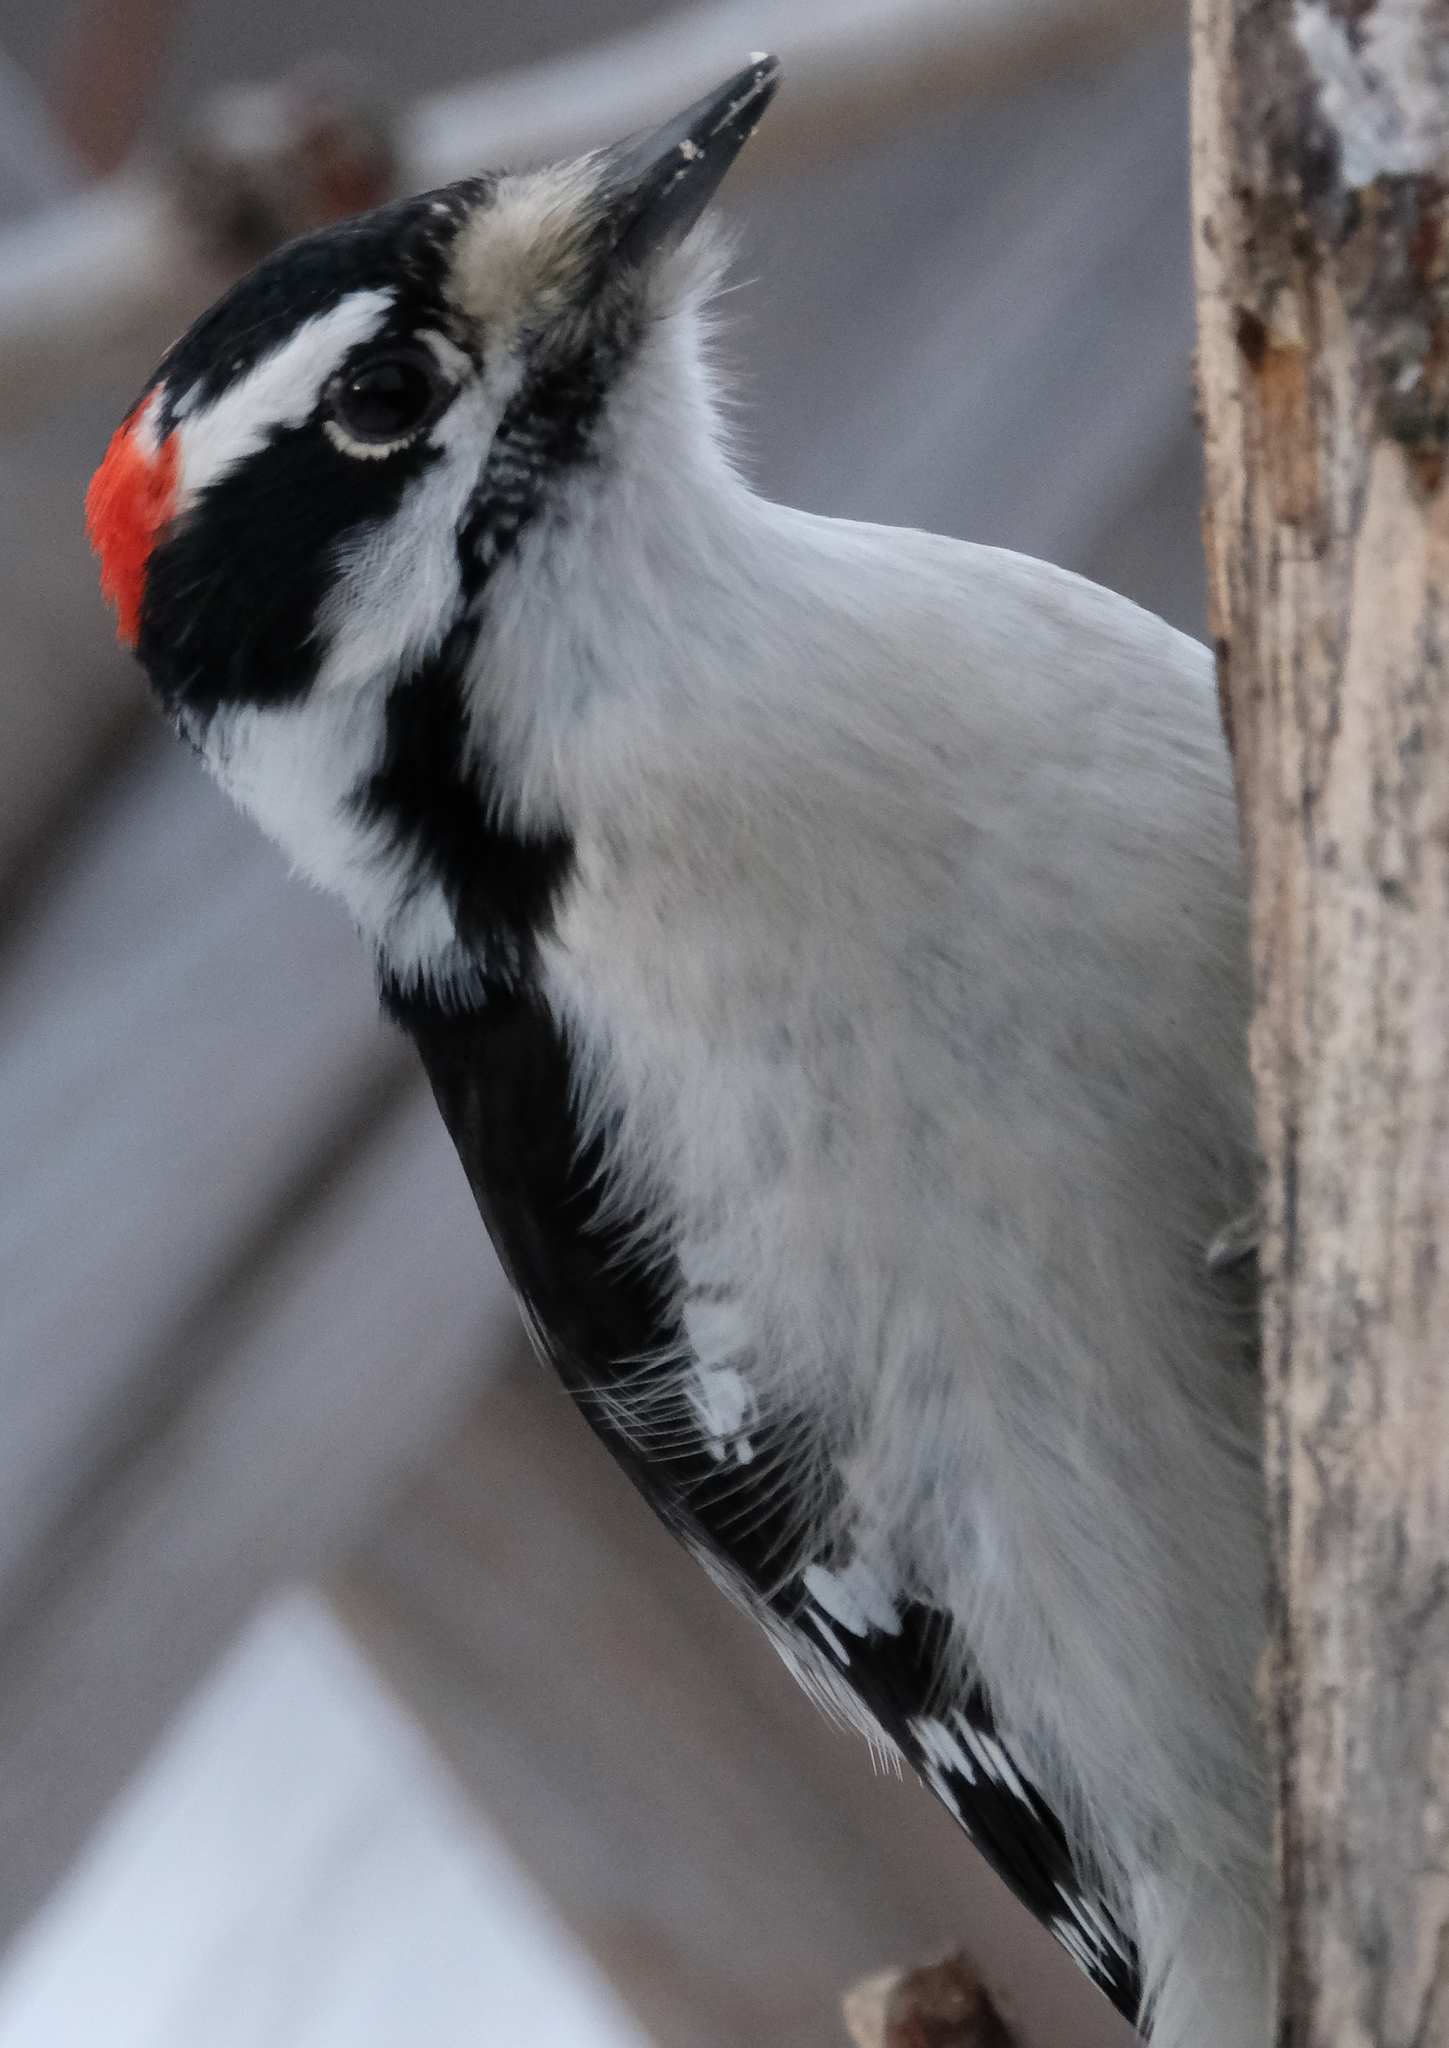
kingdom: Animalia
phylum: Chordata
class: Aves
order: Piciformes
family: Picidae
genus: Dryobates
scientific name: Dryobates pubescens
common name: Downy woodpecker
